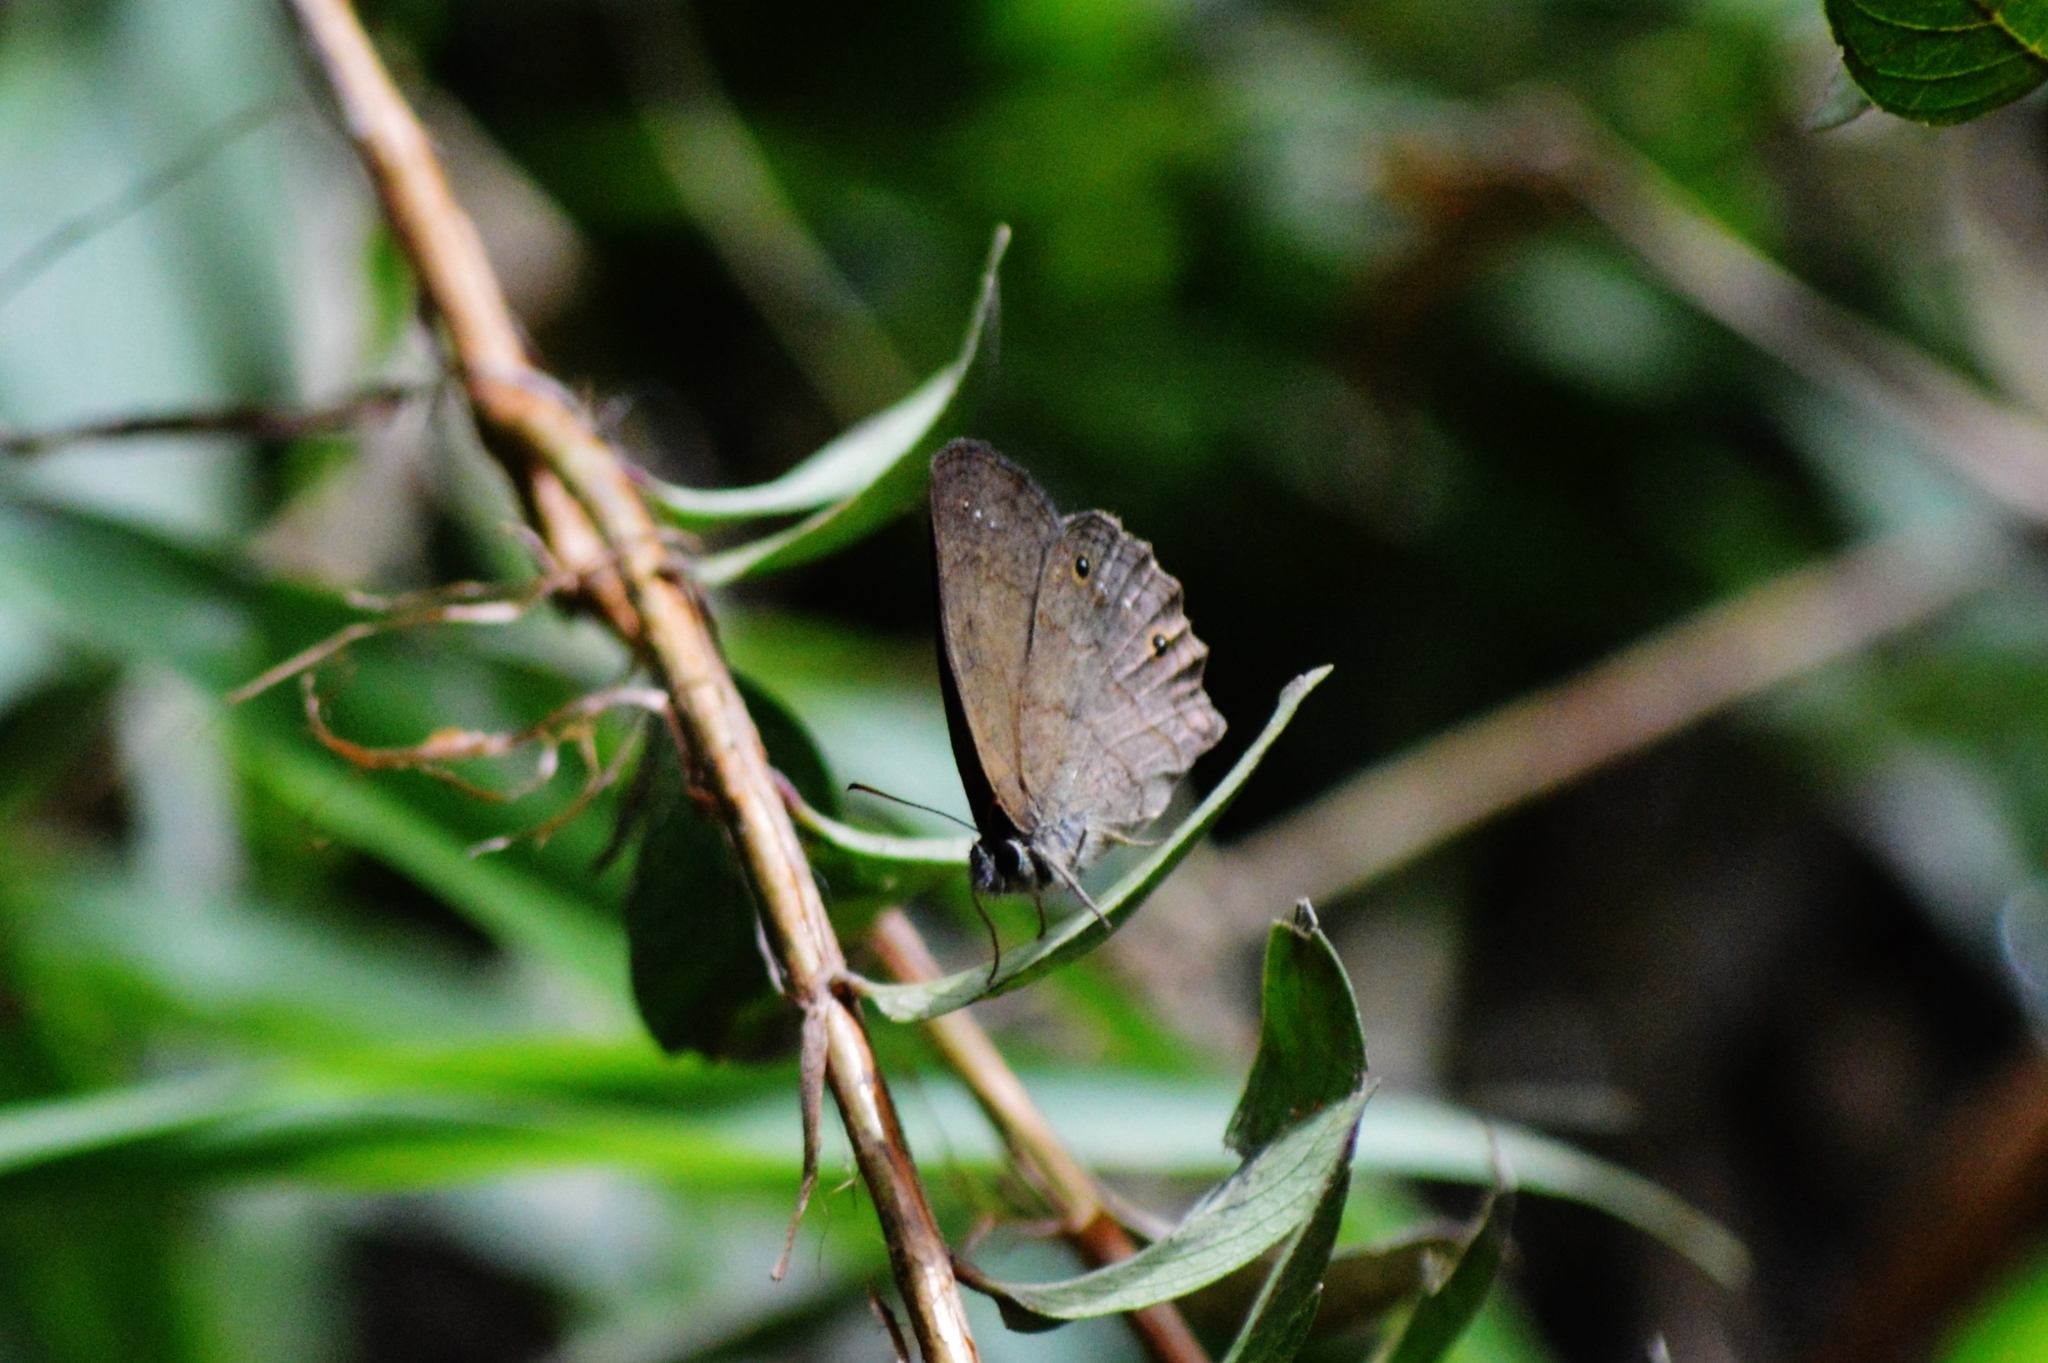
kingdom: Animalia
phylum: Arthropoda
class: Insecta
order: Lepidoptera
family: Nymphalidae
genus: Euptychia
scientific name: Euptychia Cissia eous
